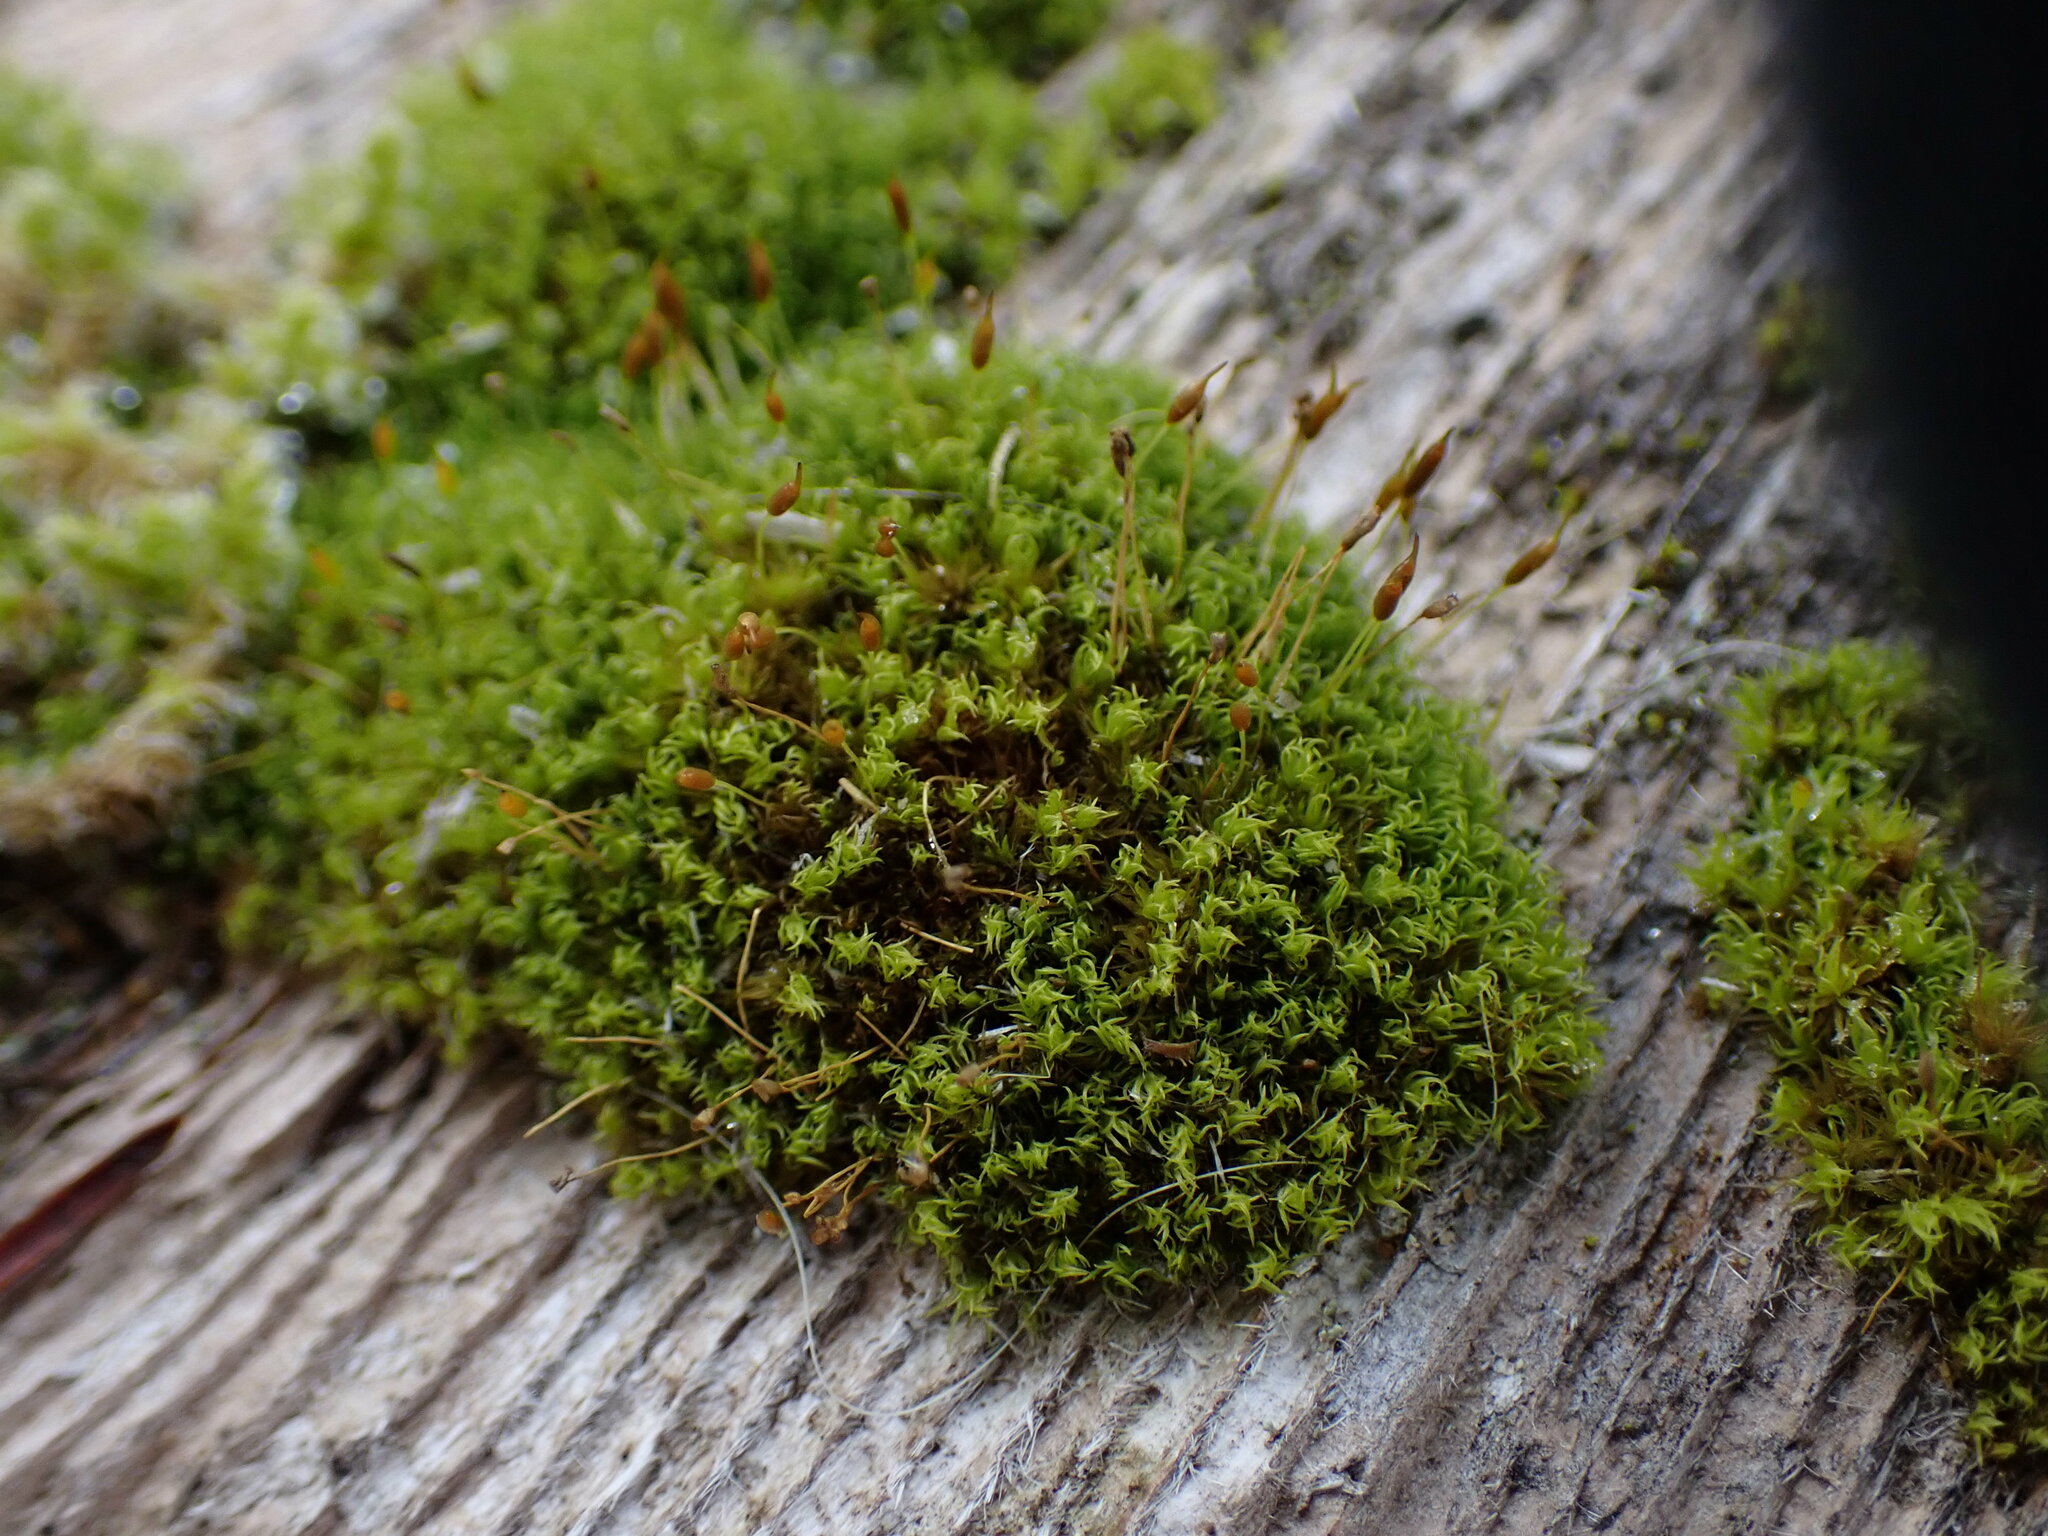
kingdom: Plantae
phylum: Bryophyta
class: Bryopsida
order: Dicranales
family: Rhabdoweisiaceae
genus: Dicranoweisia
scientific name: Dicranoweisia cirrata
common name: Common pincushion
